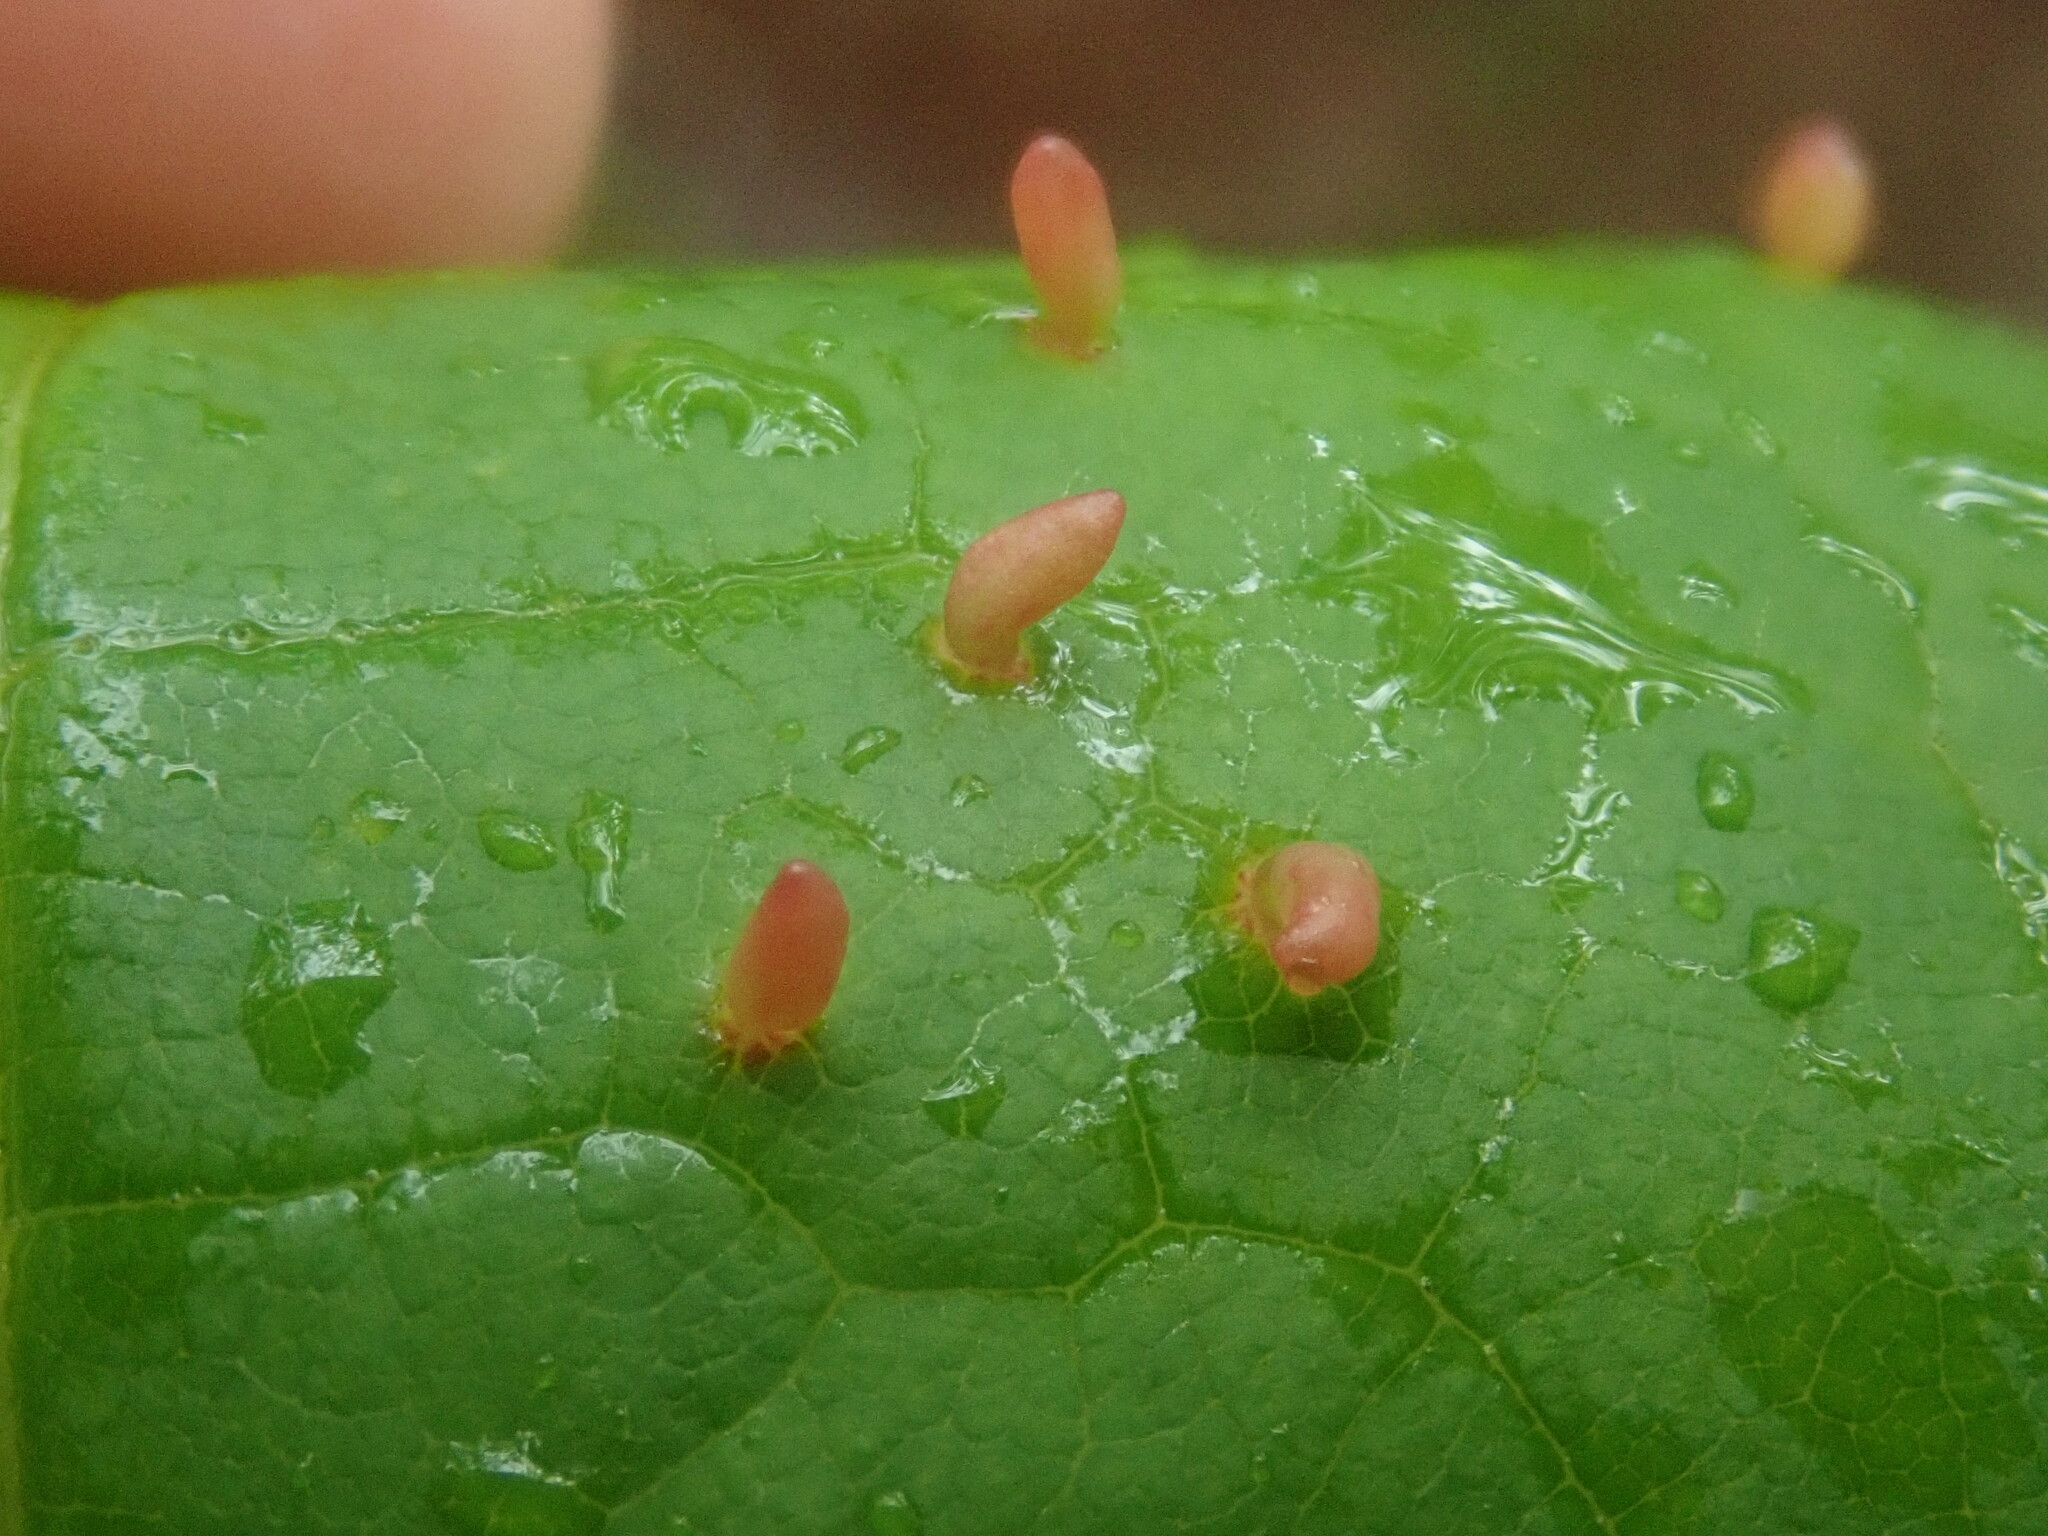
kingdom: Animalia
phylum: Arthropoda
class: Arachnida
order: Trombidiformes
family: Eriophyidae
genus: Vasates
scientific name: Vasates aceriscrumena
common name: Maple spindle gall mite
